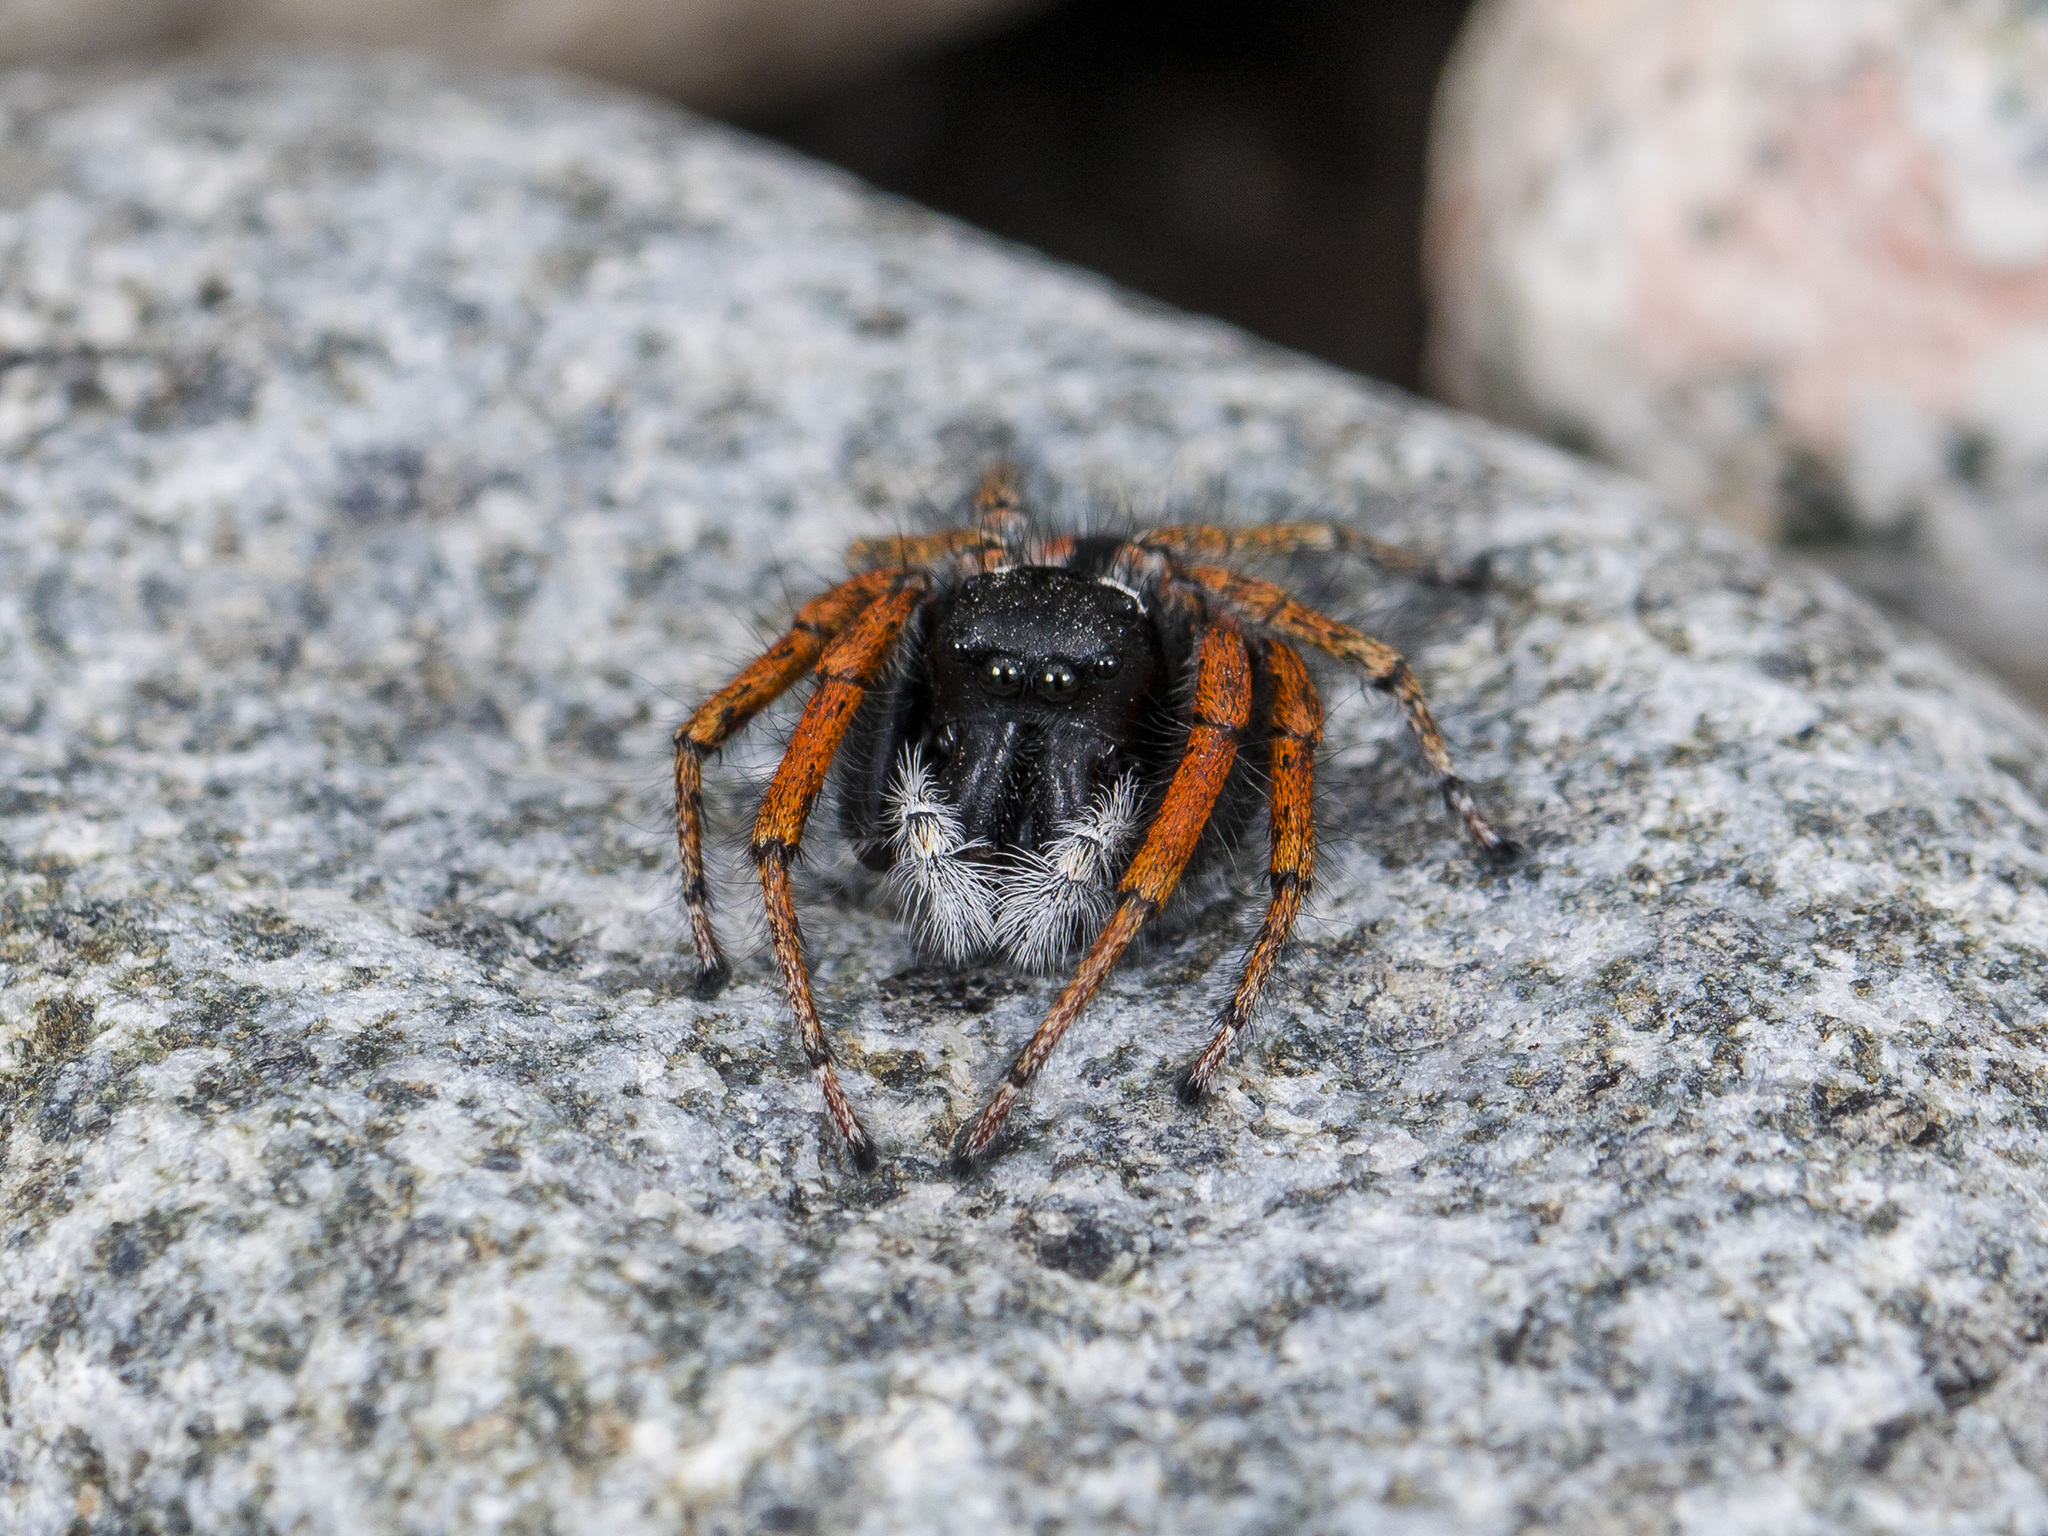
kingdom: Animalia
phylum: Arthropoda
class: Arachnida
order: Araneae
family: Salticidae
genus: Philaeus
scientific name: Philaeus chrysops
